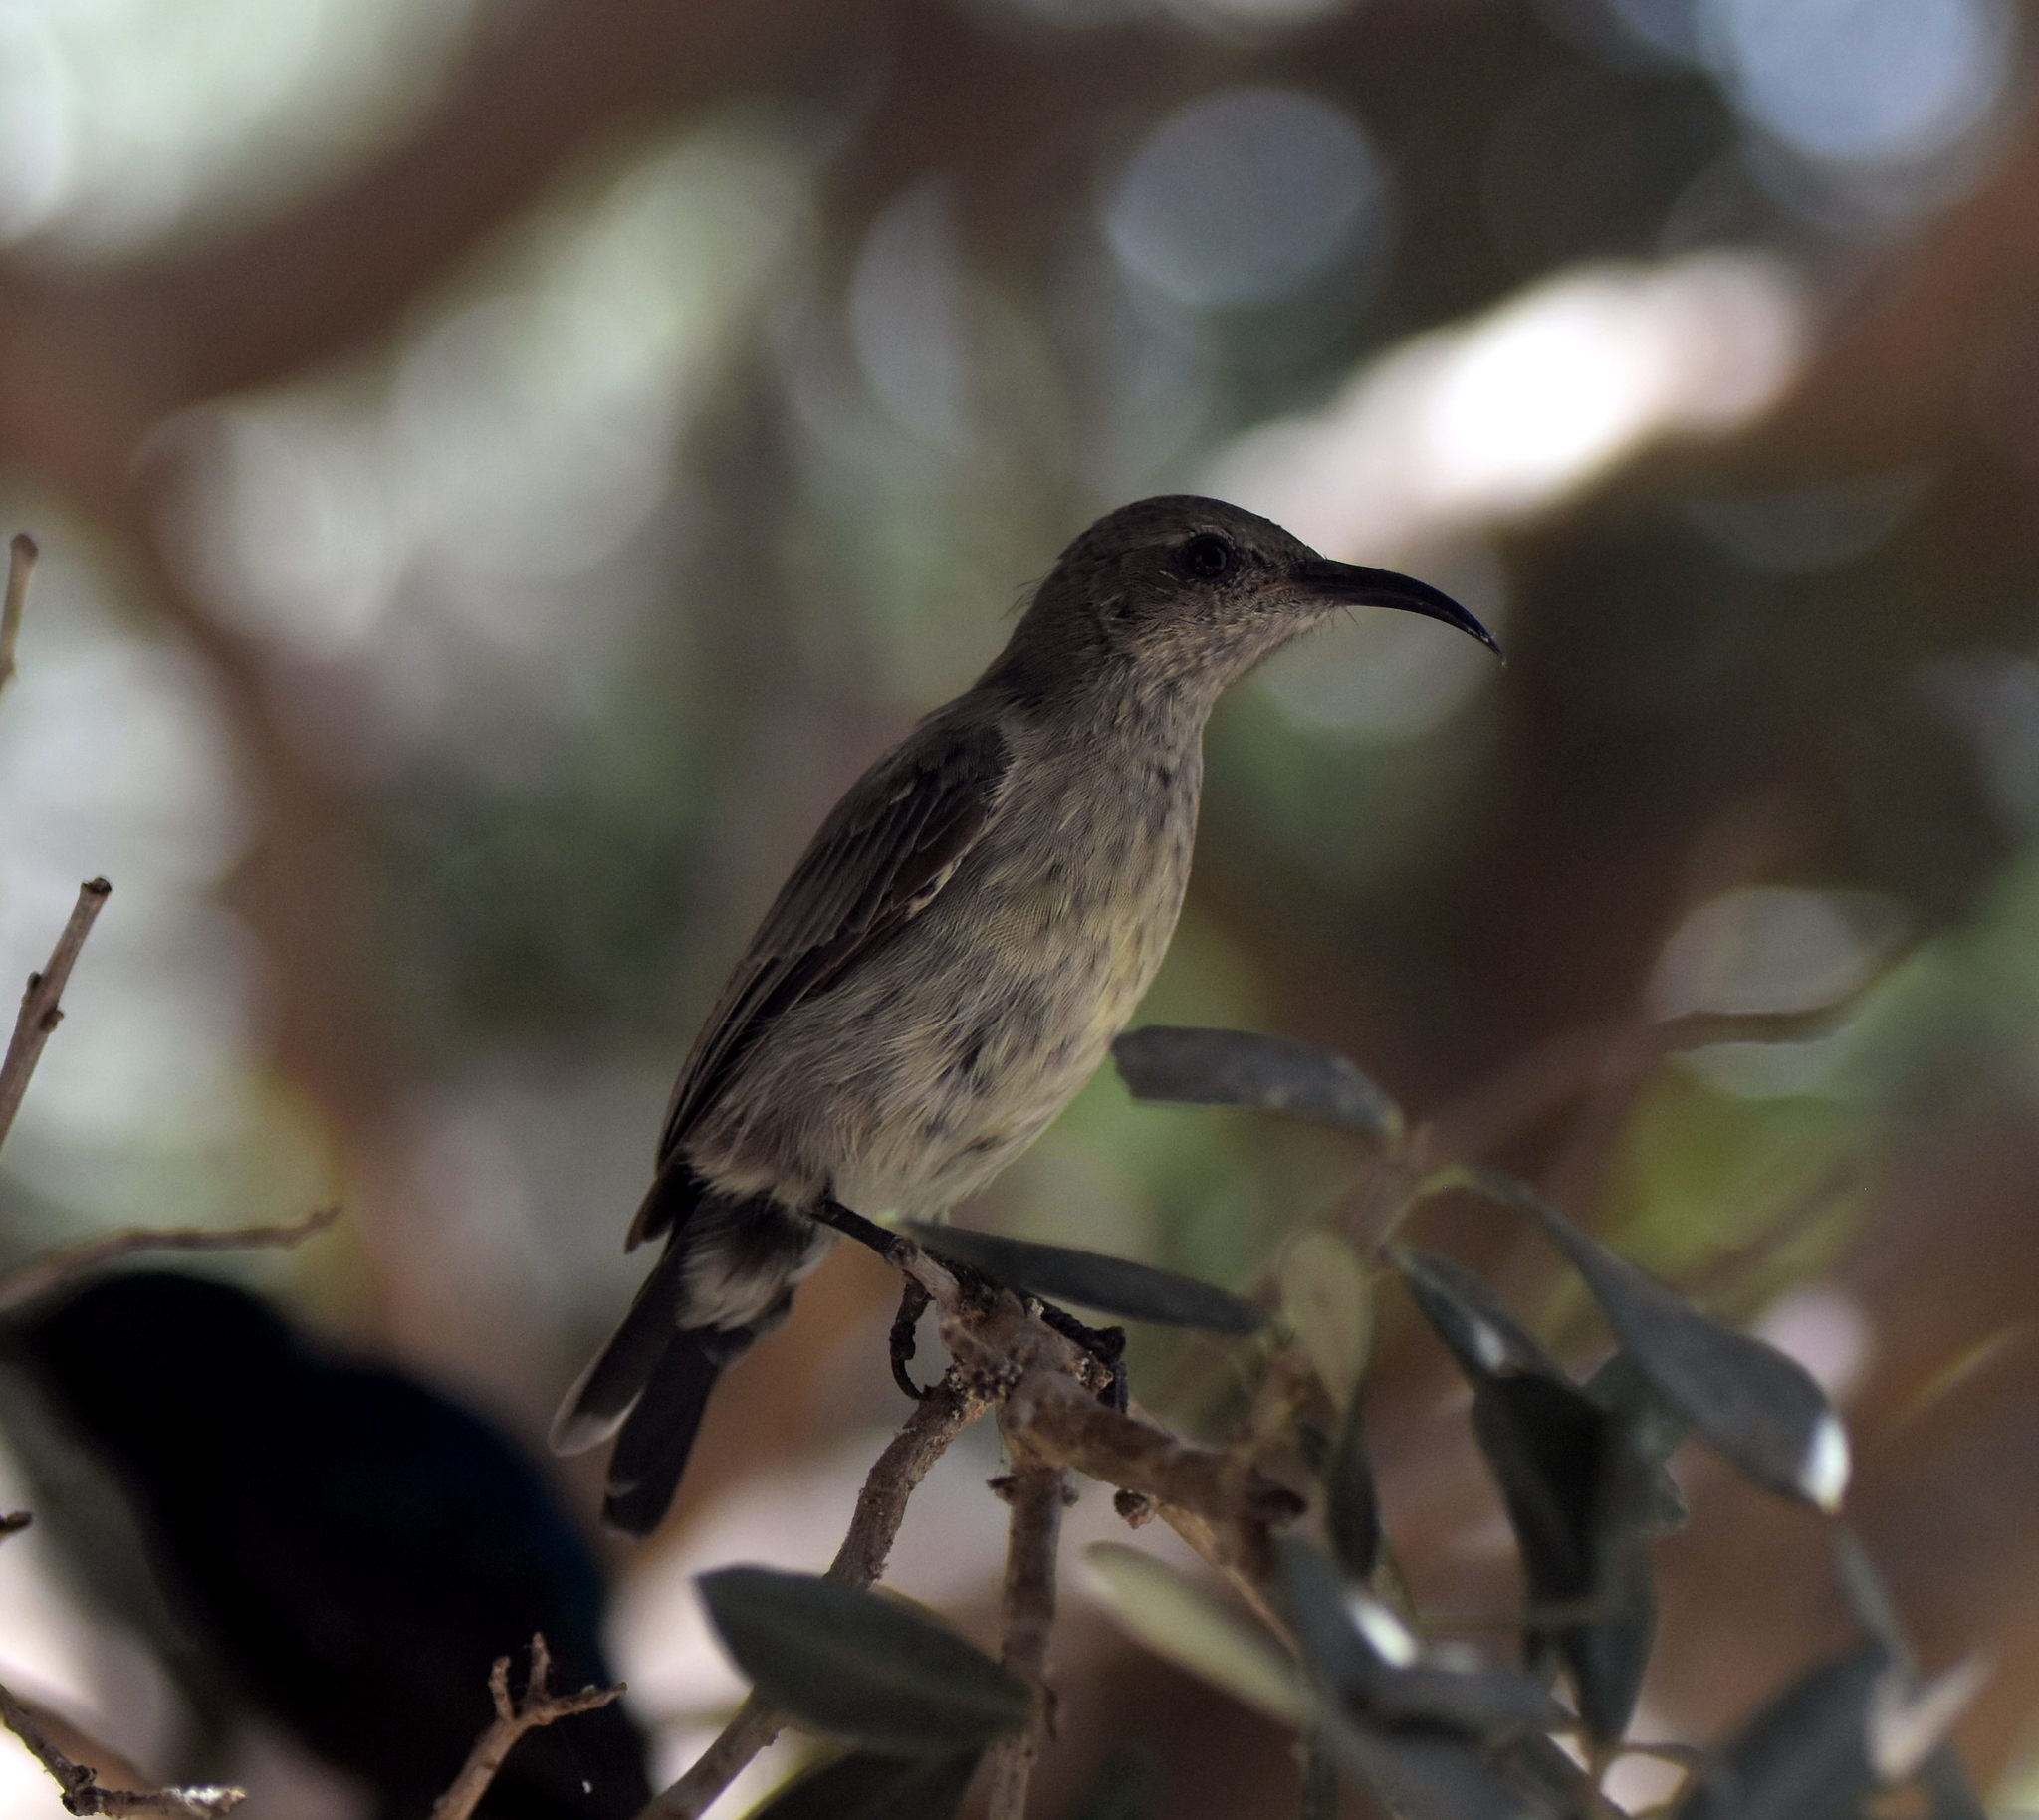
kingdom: Animalia
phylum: Chordata
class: Aves
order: Passeriformes
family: Nectariniidae
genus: Cinnyris
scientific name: Cinnyris osea
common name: Palestine sunbird
